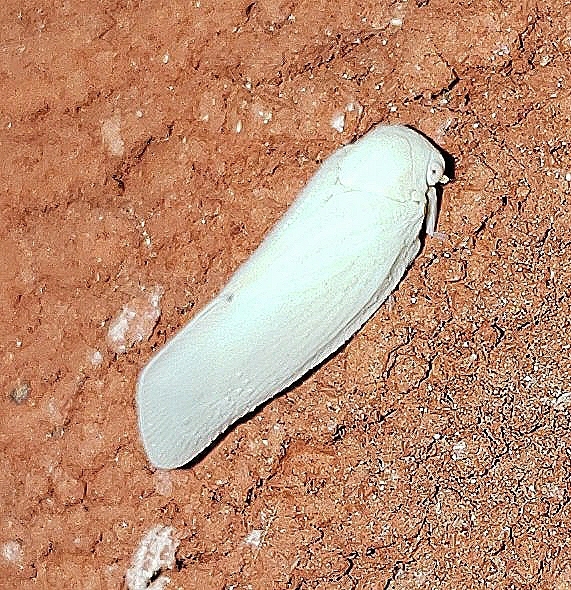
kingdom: Animalia
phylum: Arthropoda
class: Insecta
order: Hemiptera
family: Flatidae
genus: Flatormenis
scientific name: Flatormenis proxima
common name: Northern flatid planthopper
